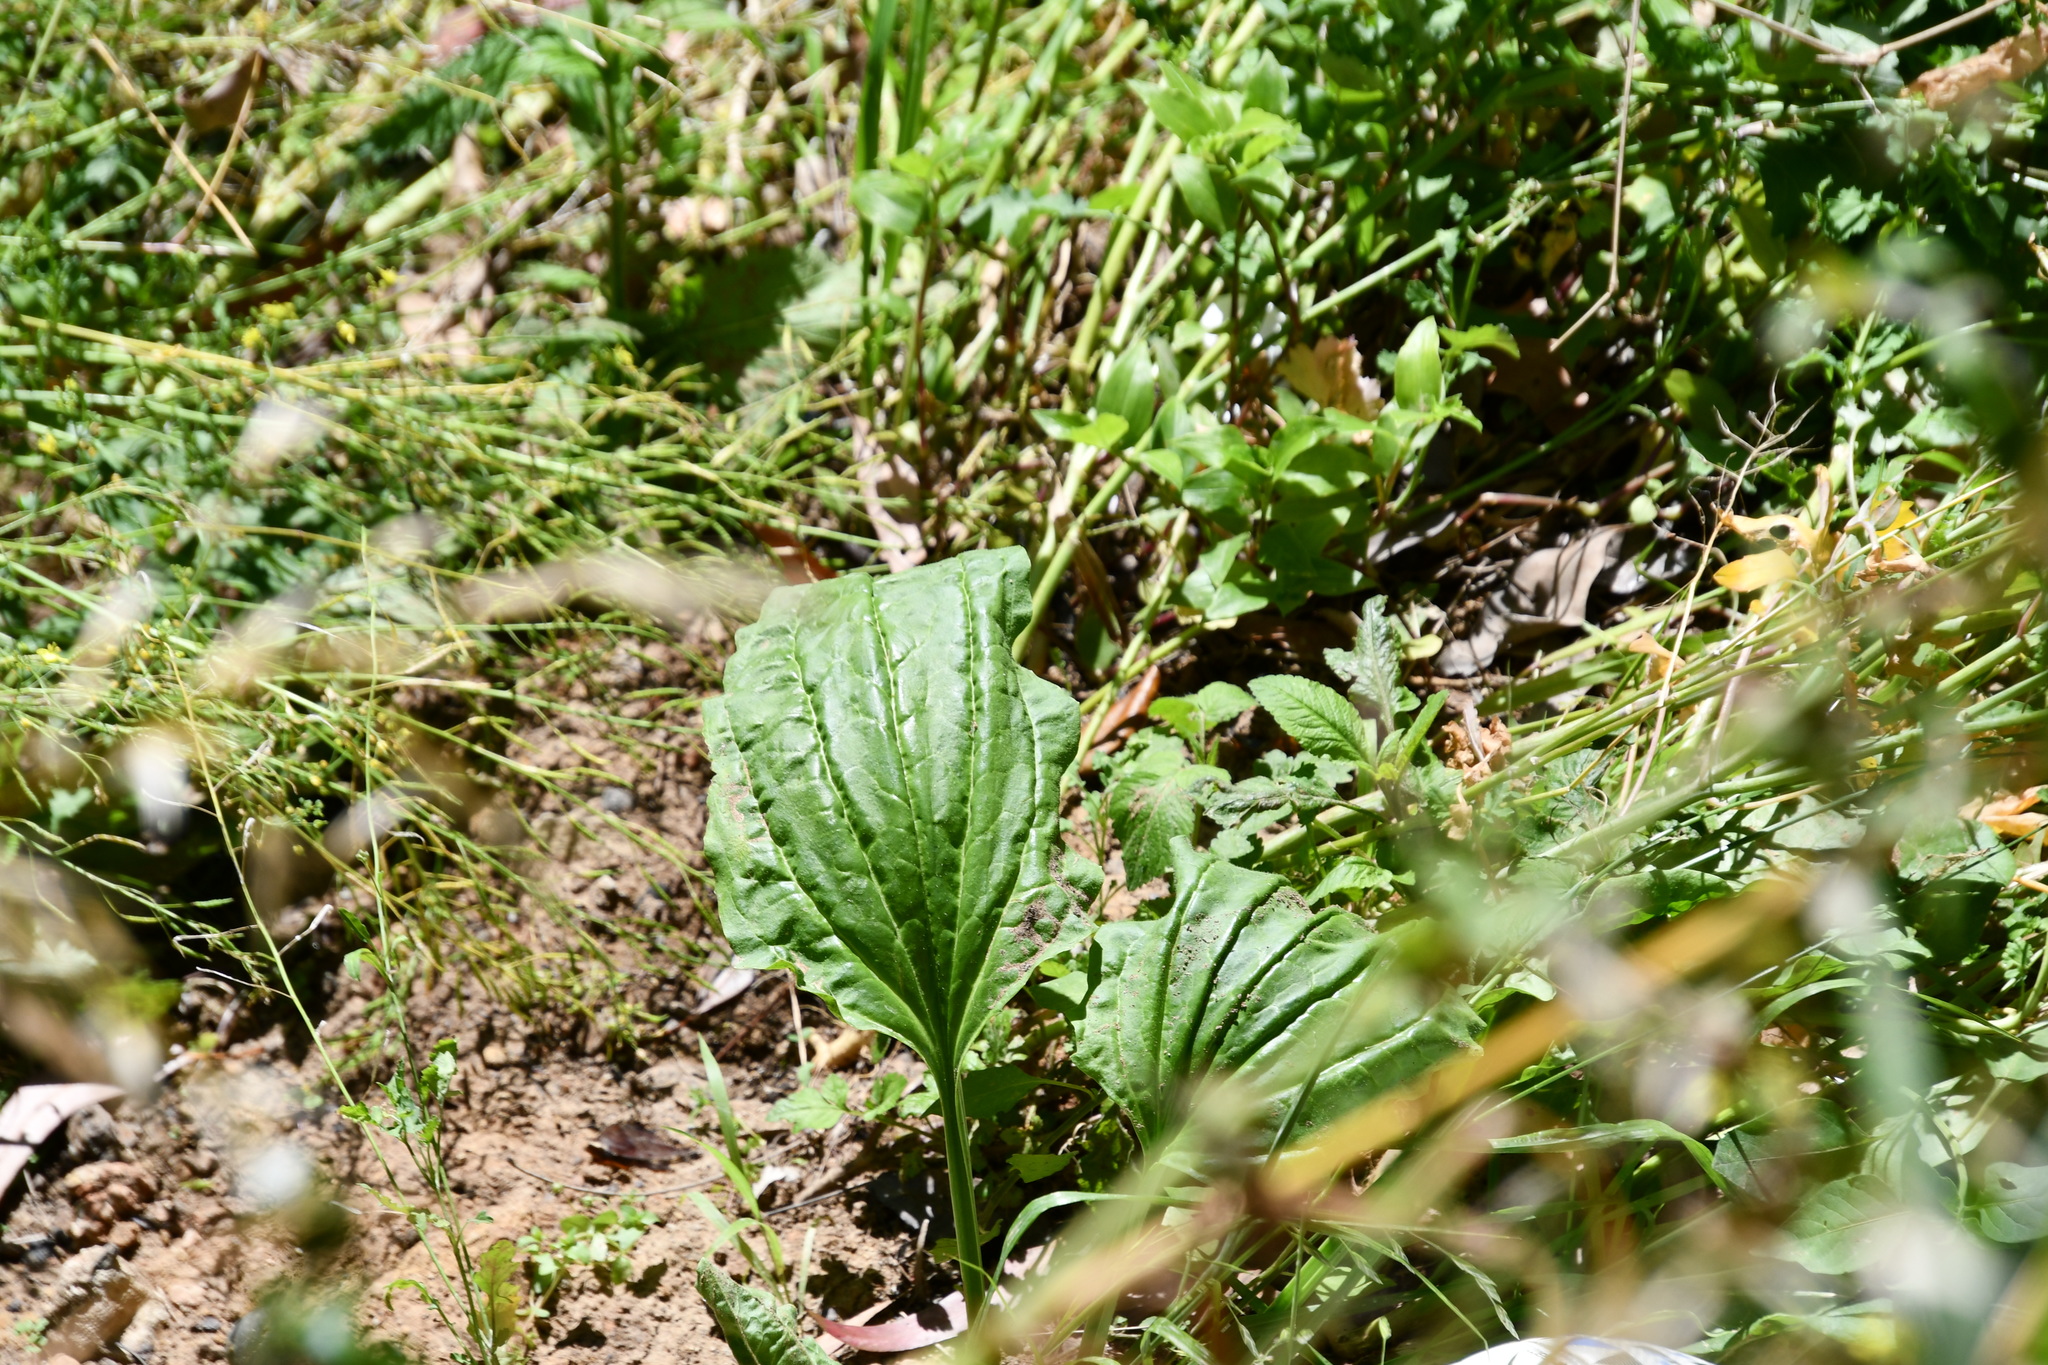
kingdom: Plantae
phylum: Tracheophyta
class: Magnoliopsida
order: Lamiales
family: Plantaginaceae
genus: Plantago
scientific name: Plantago major
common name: Common plantain
